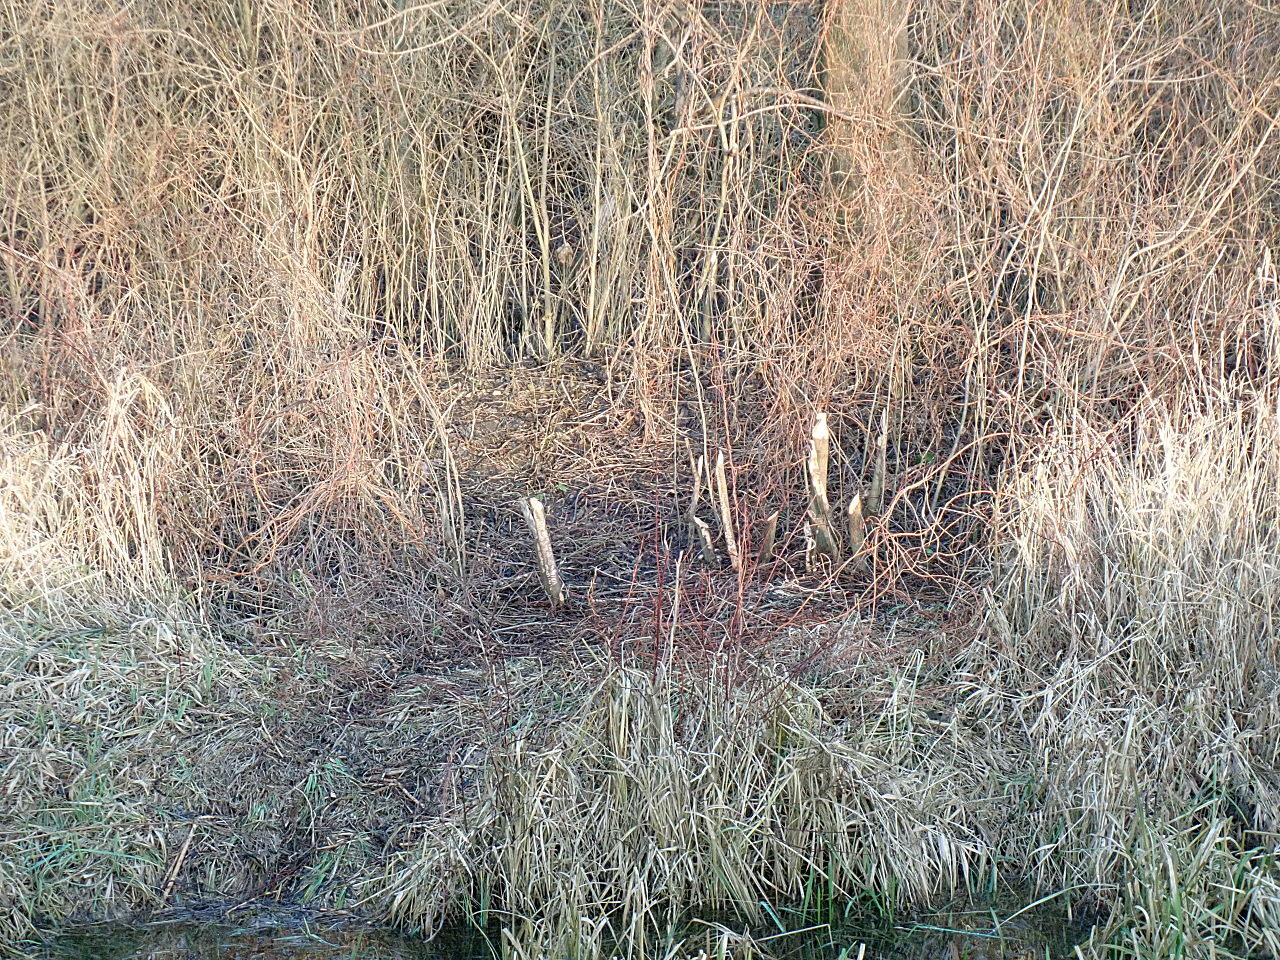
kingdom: Animalia
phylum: Chordata
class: Mammalia
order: Rodentia
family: Castoridae
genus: Castor
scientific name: Castor fiber
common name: Eurasian beaver
